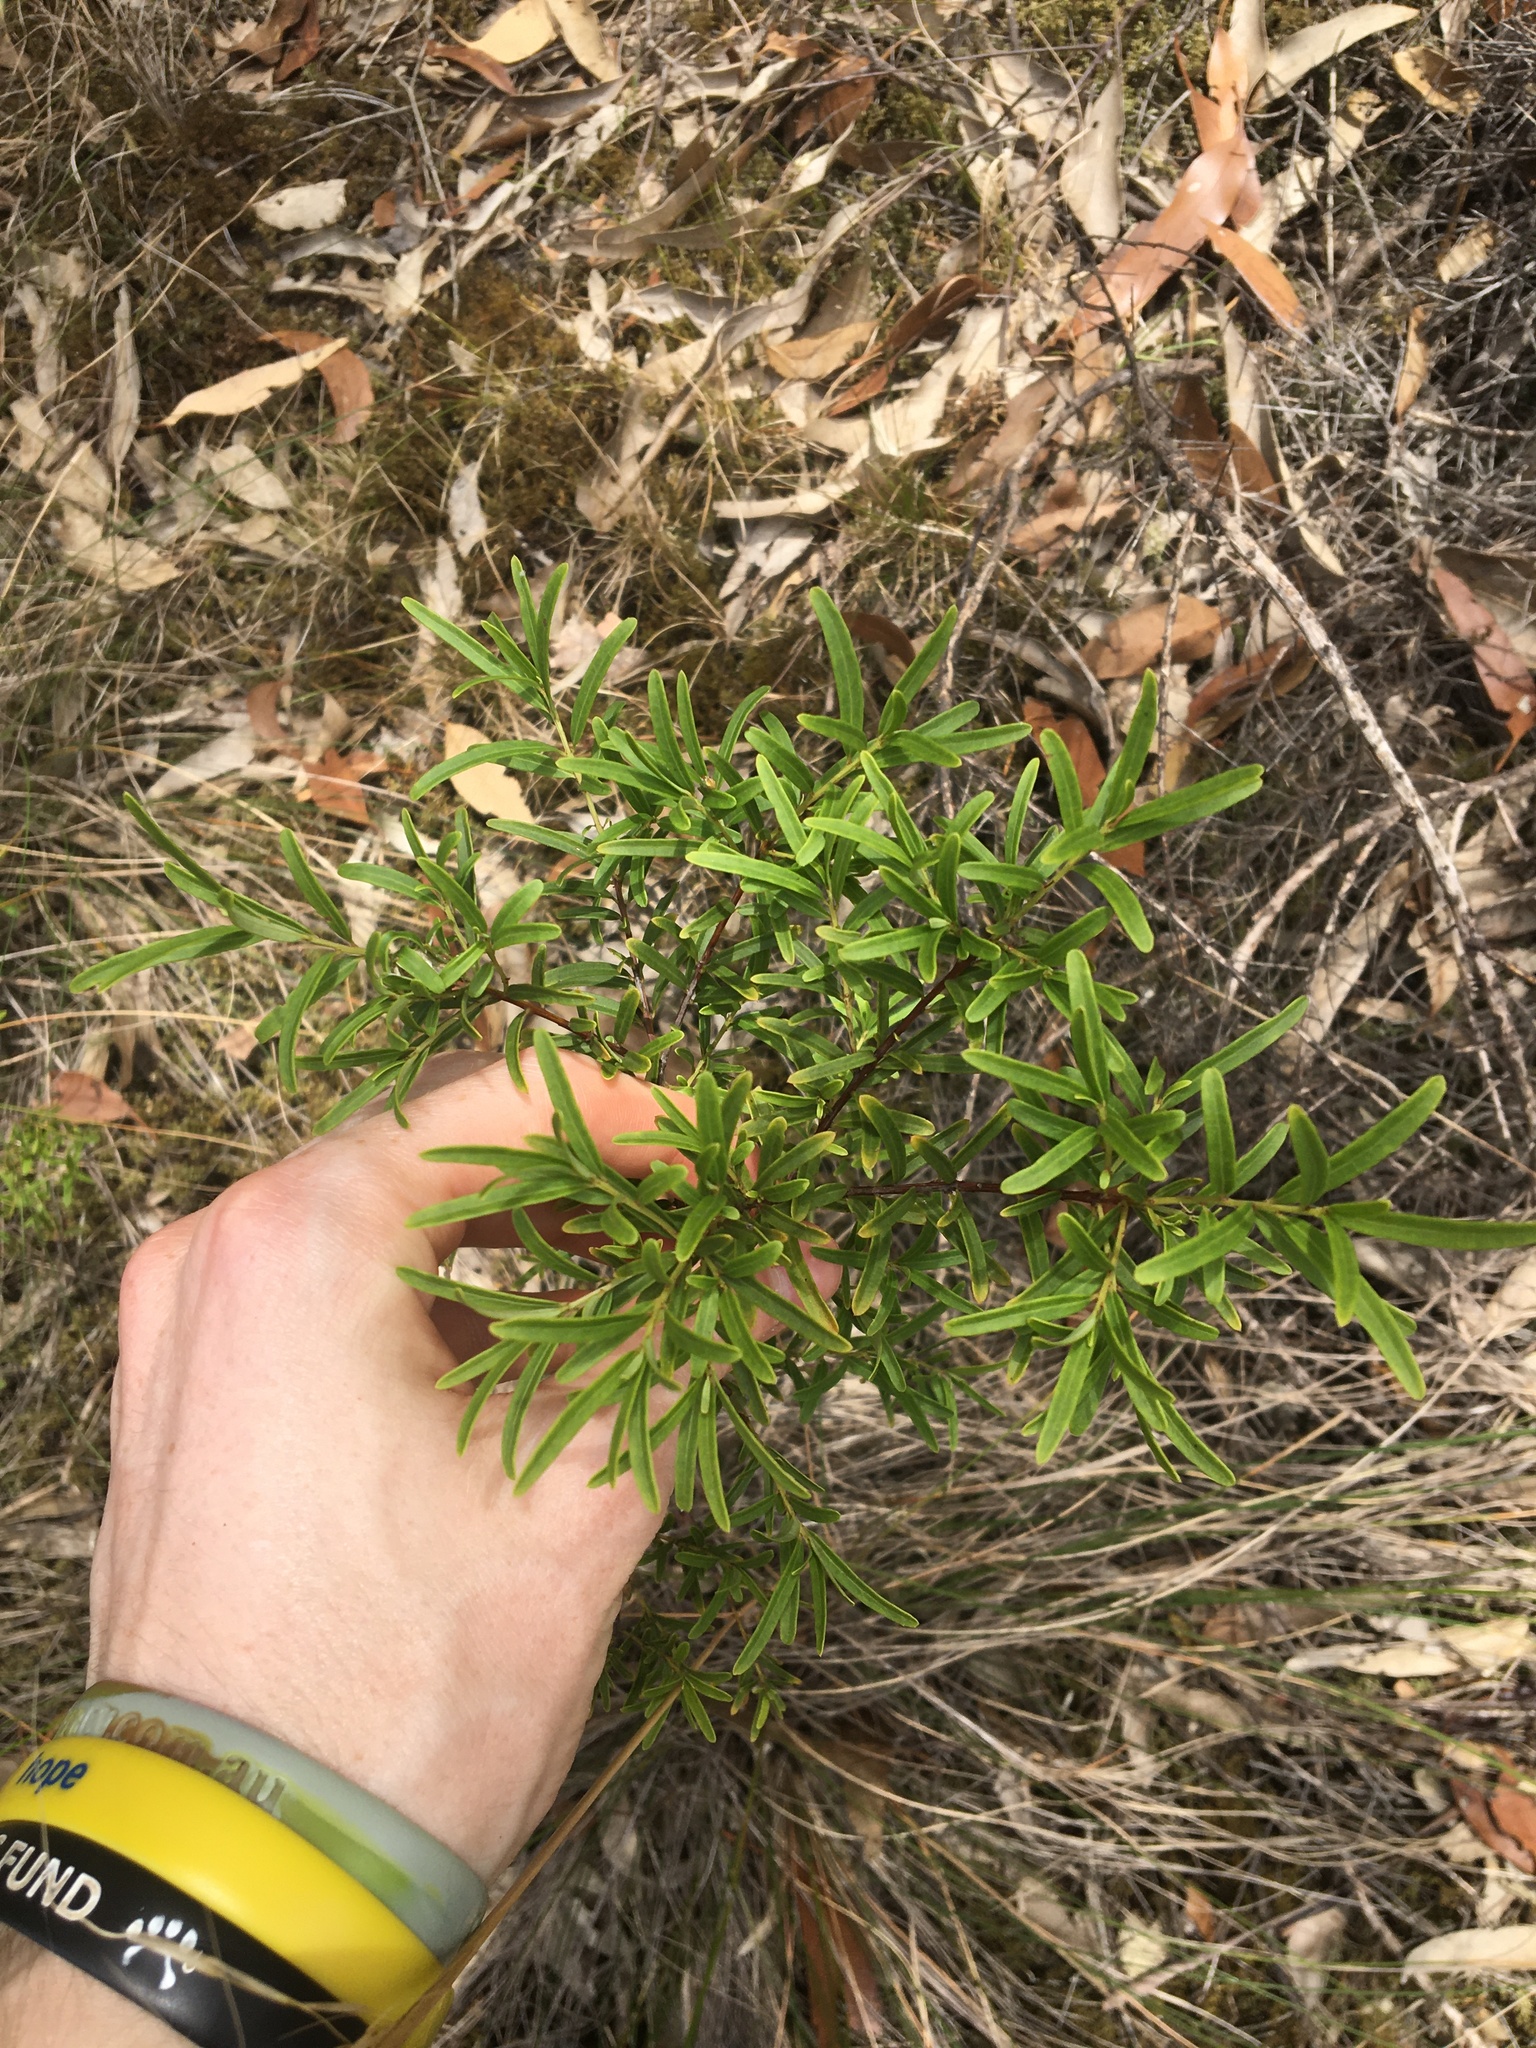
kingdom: Plantae
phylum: Tracheophyta
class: Magnoliopsida
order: Celastrales
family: Celastraceae
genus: Denhamia
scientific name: Denhamia silvestris
